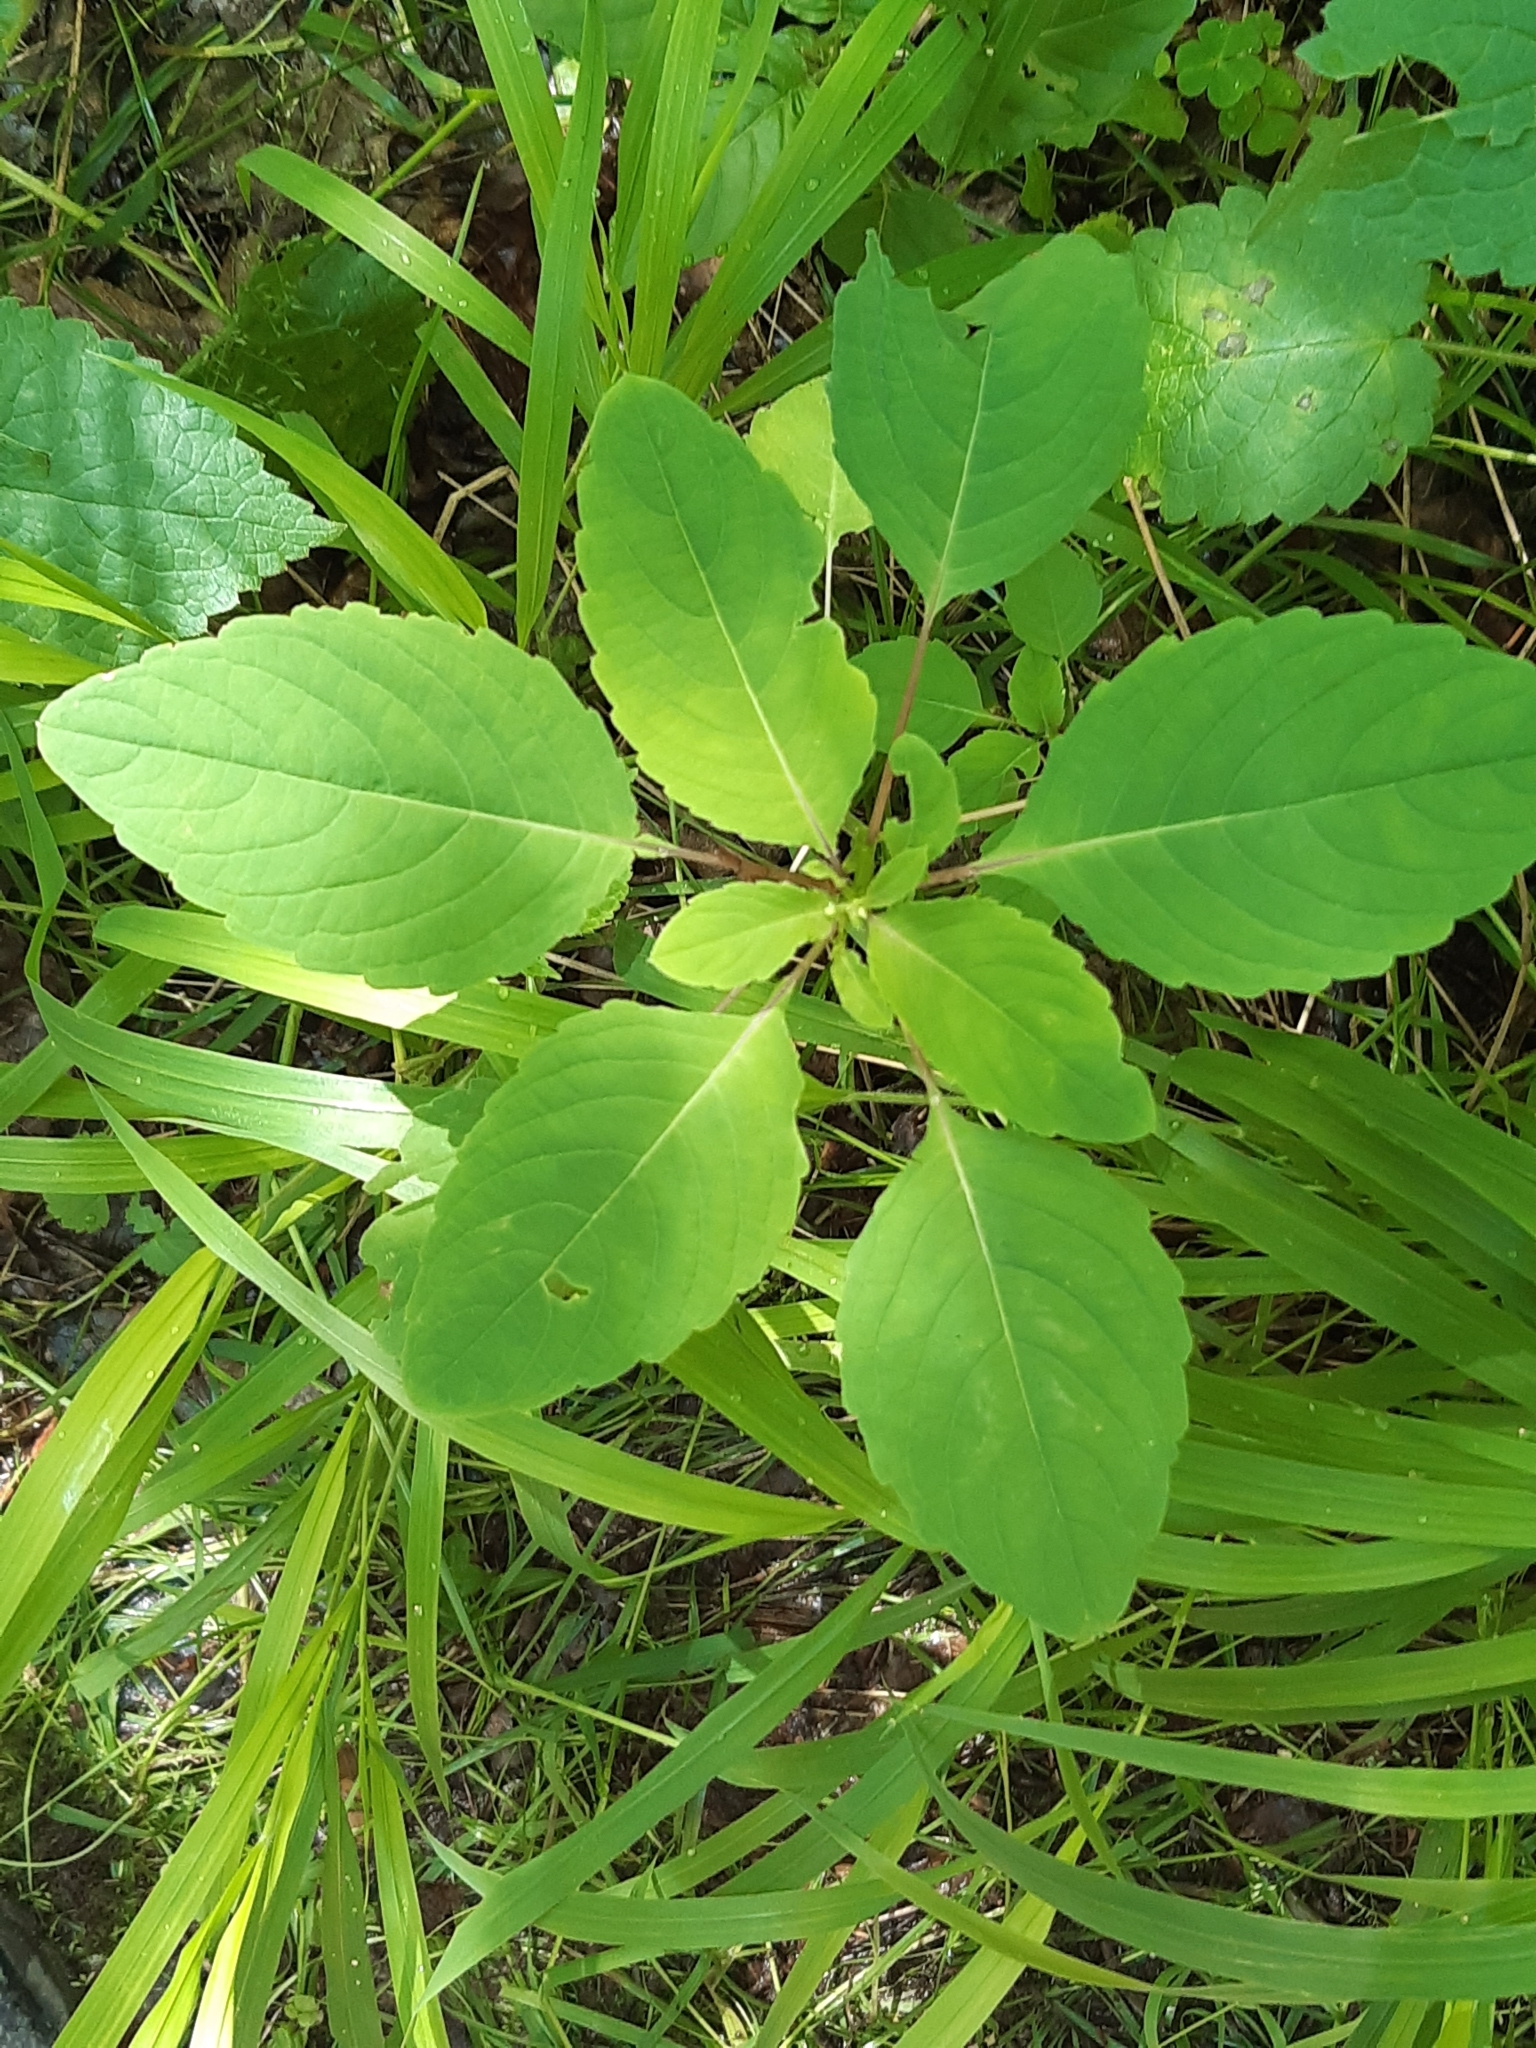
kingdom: Plantae
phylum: Tracheophyta
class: Magnoliopsida
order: Ericales
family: Balsaminaceae
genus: Impatiens
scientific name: Impatiens noli-tangere
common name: Touch-me-not balsam
